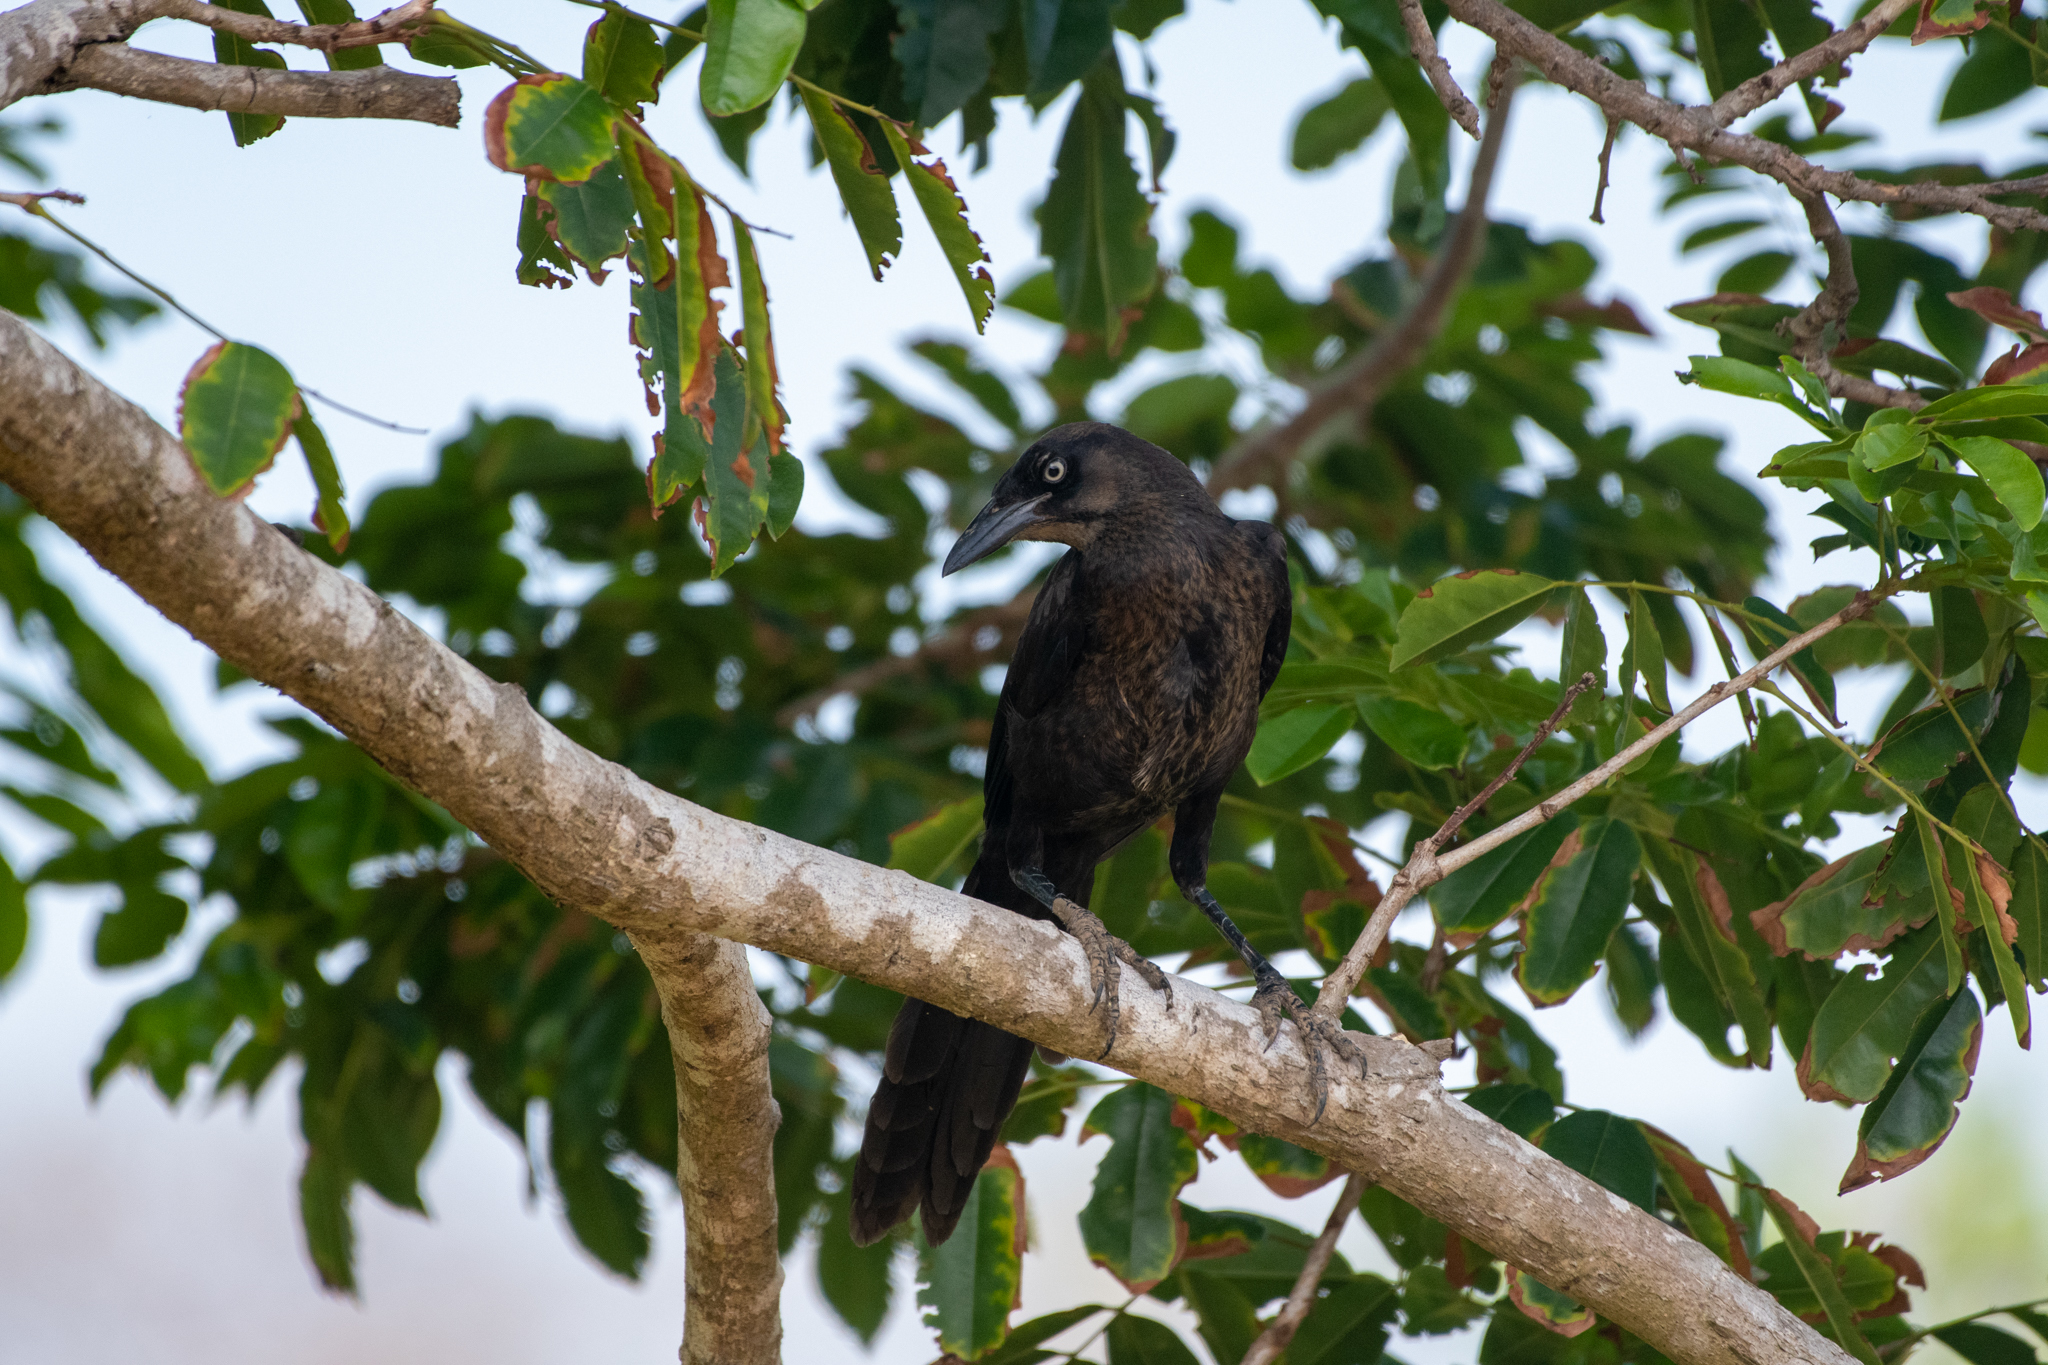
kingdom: Animalia
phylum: Chordata
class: Aves
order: Passeriformes
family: Icteridae
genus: Quiscalus
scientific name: Quiscalus mexicanus
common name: Great-tailed grackle
